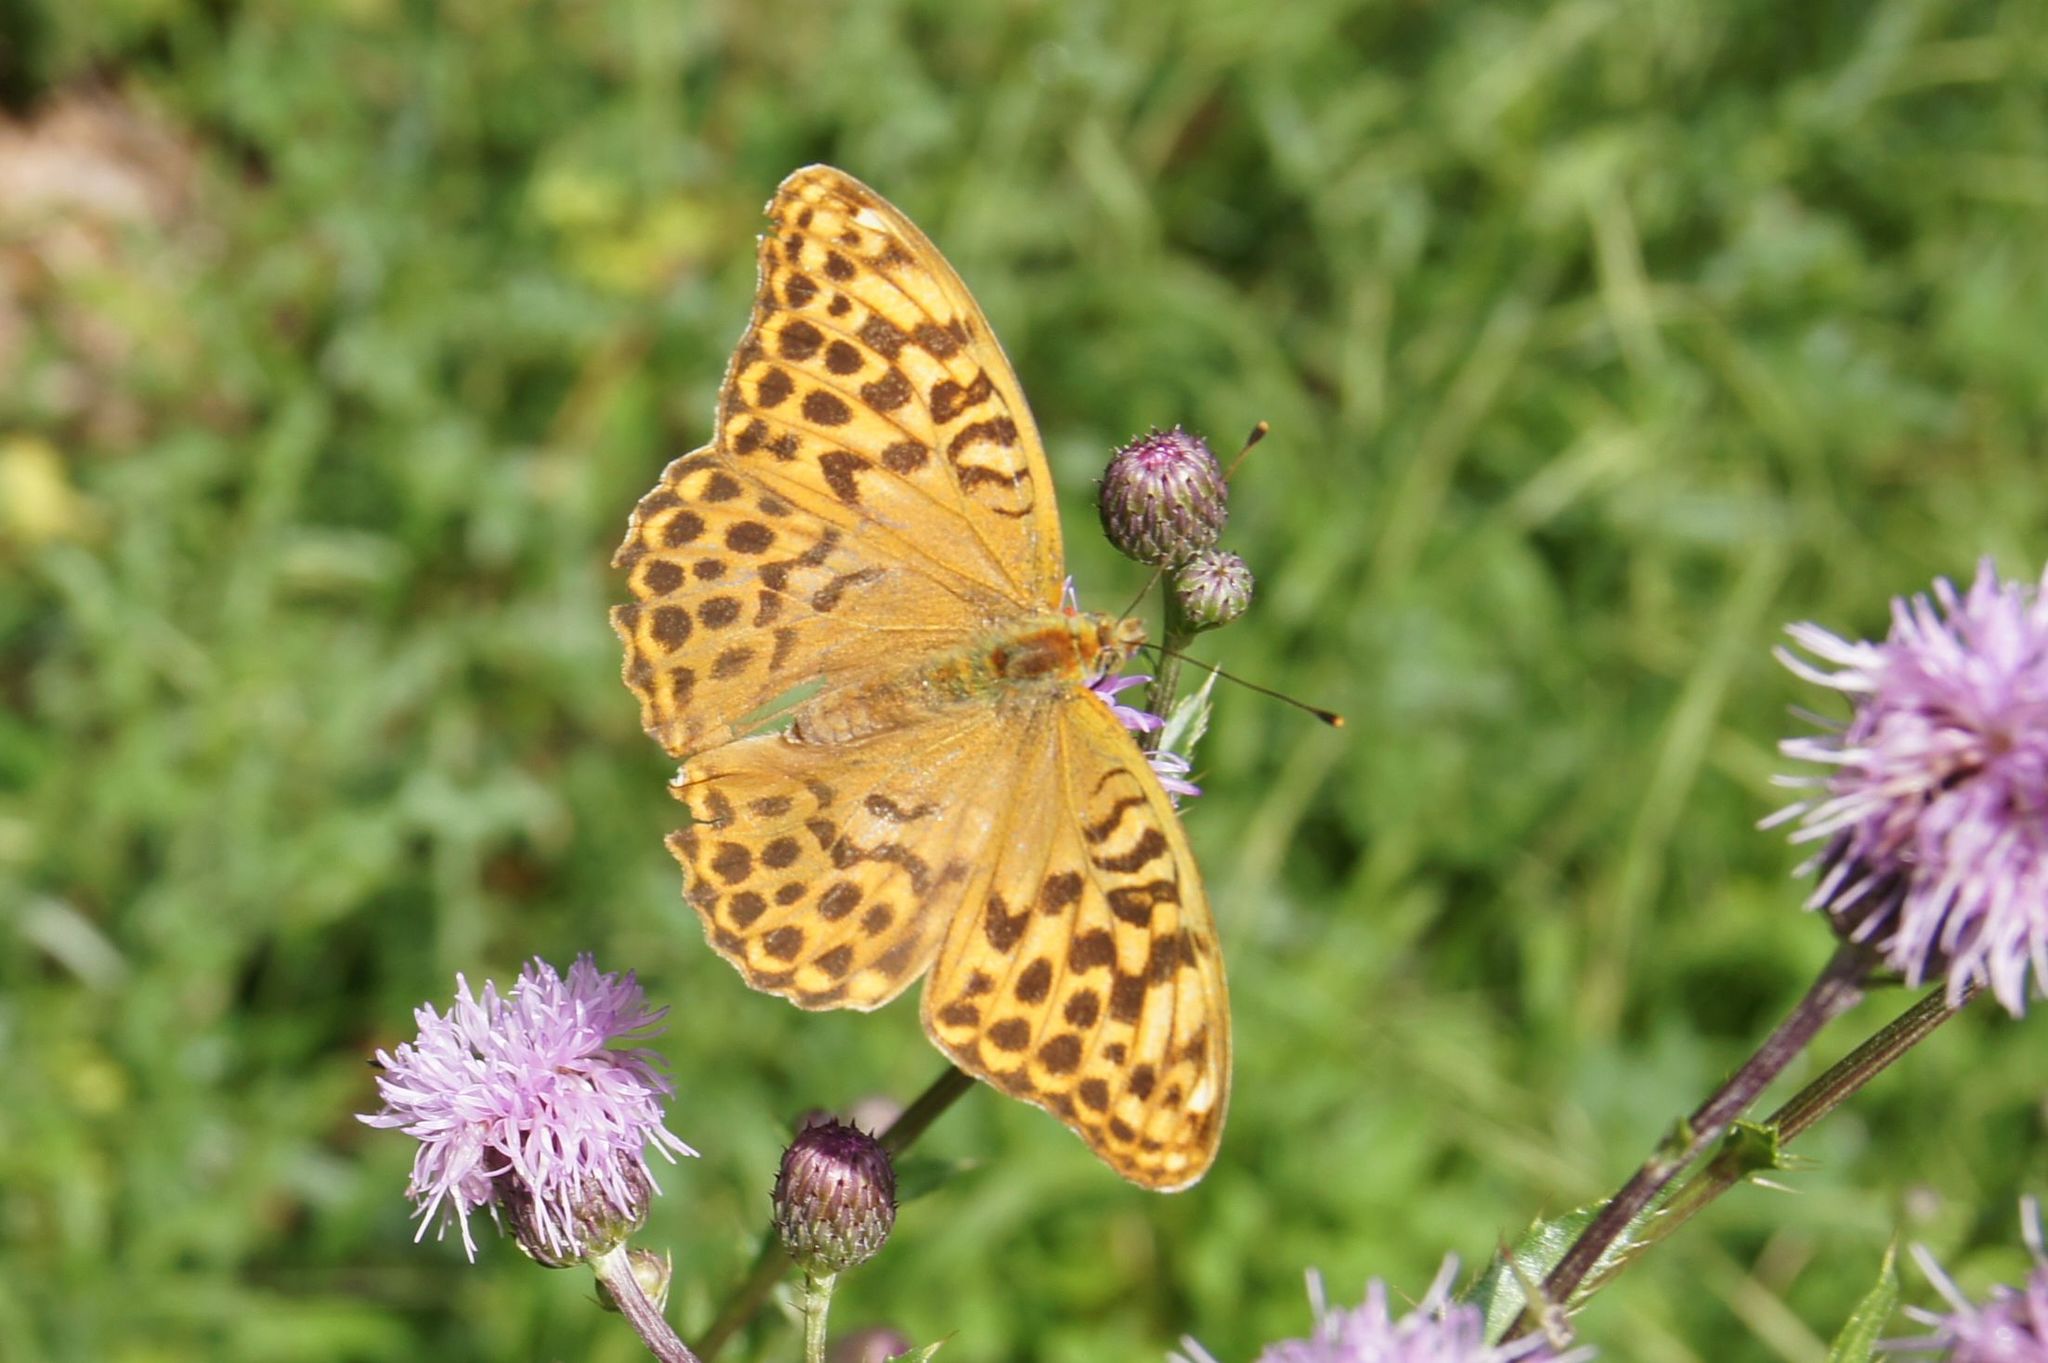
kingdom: Animalia
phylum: Arthropoda
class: Insecta
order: Lepidoptera
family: Nymphalidae
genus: Argynnis
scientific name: Argynnis paphia
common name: Silver-washed fritillary
